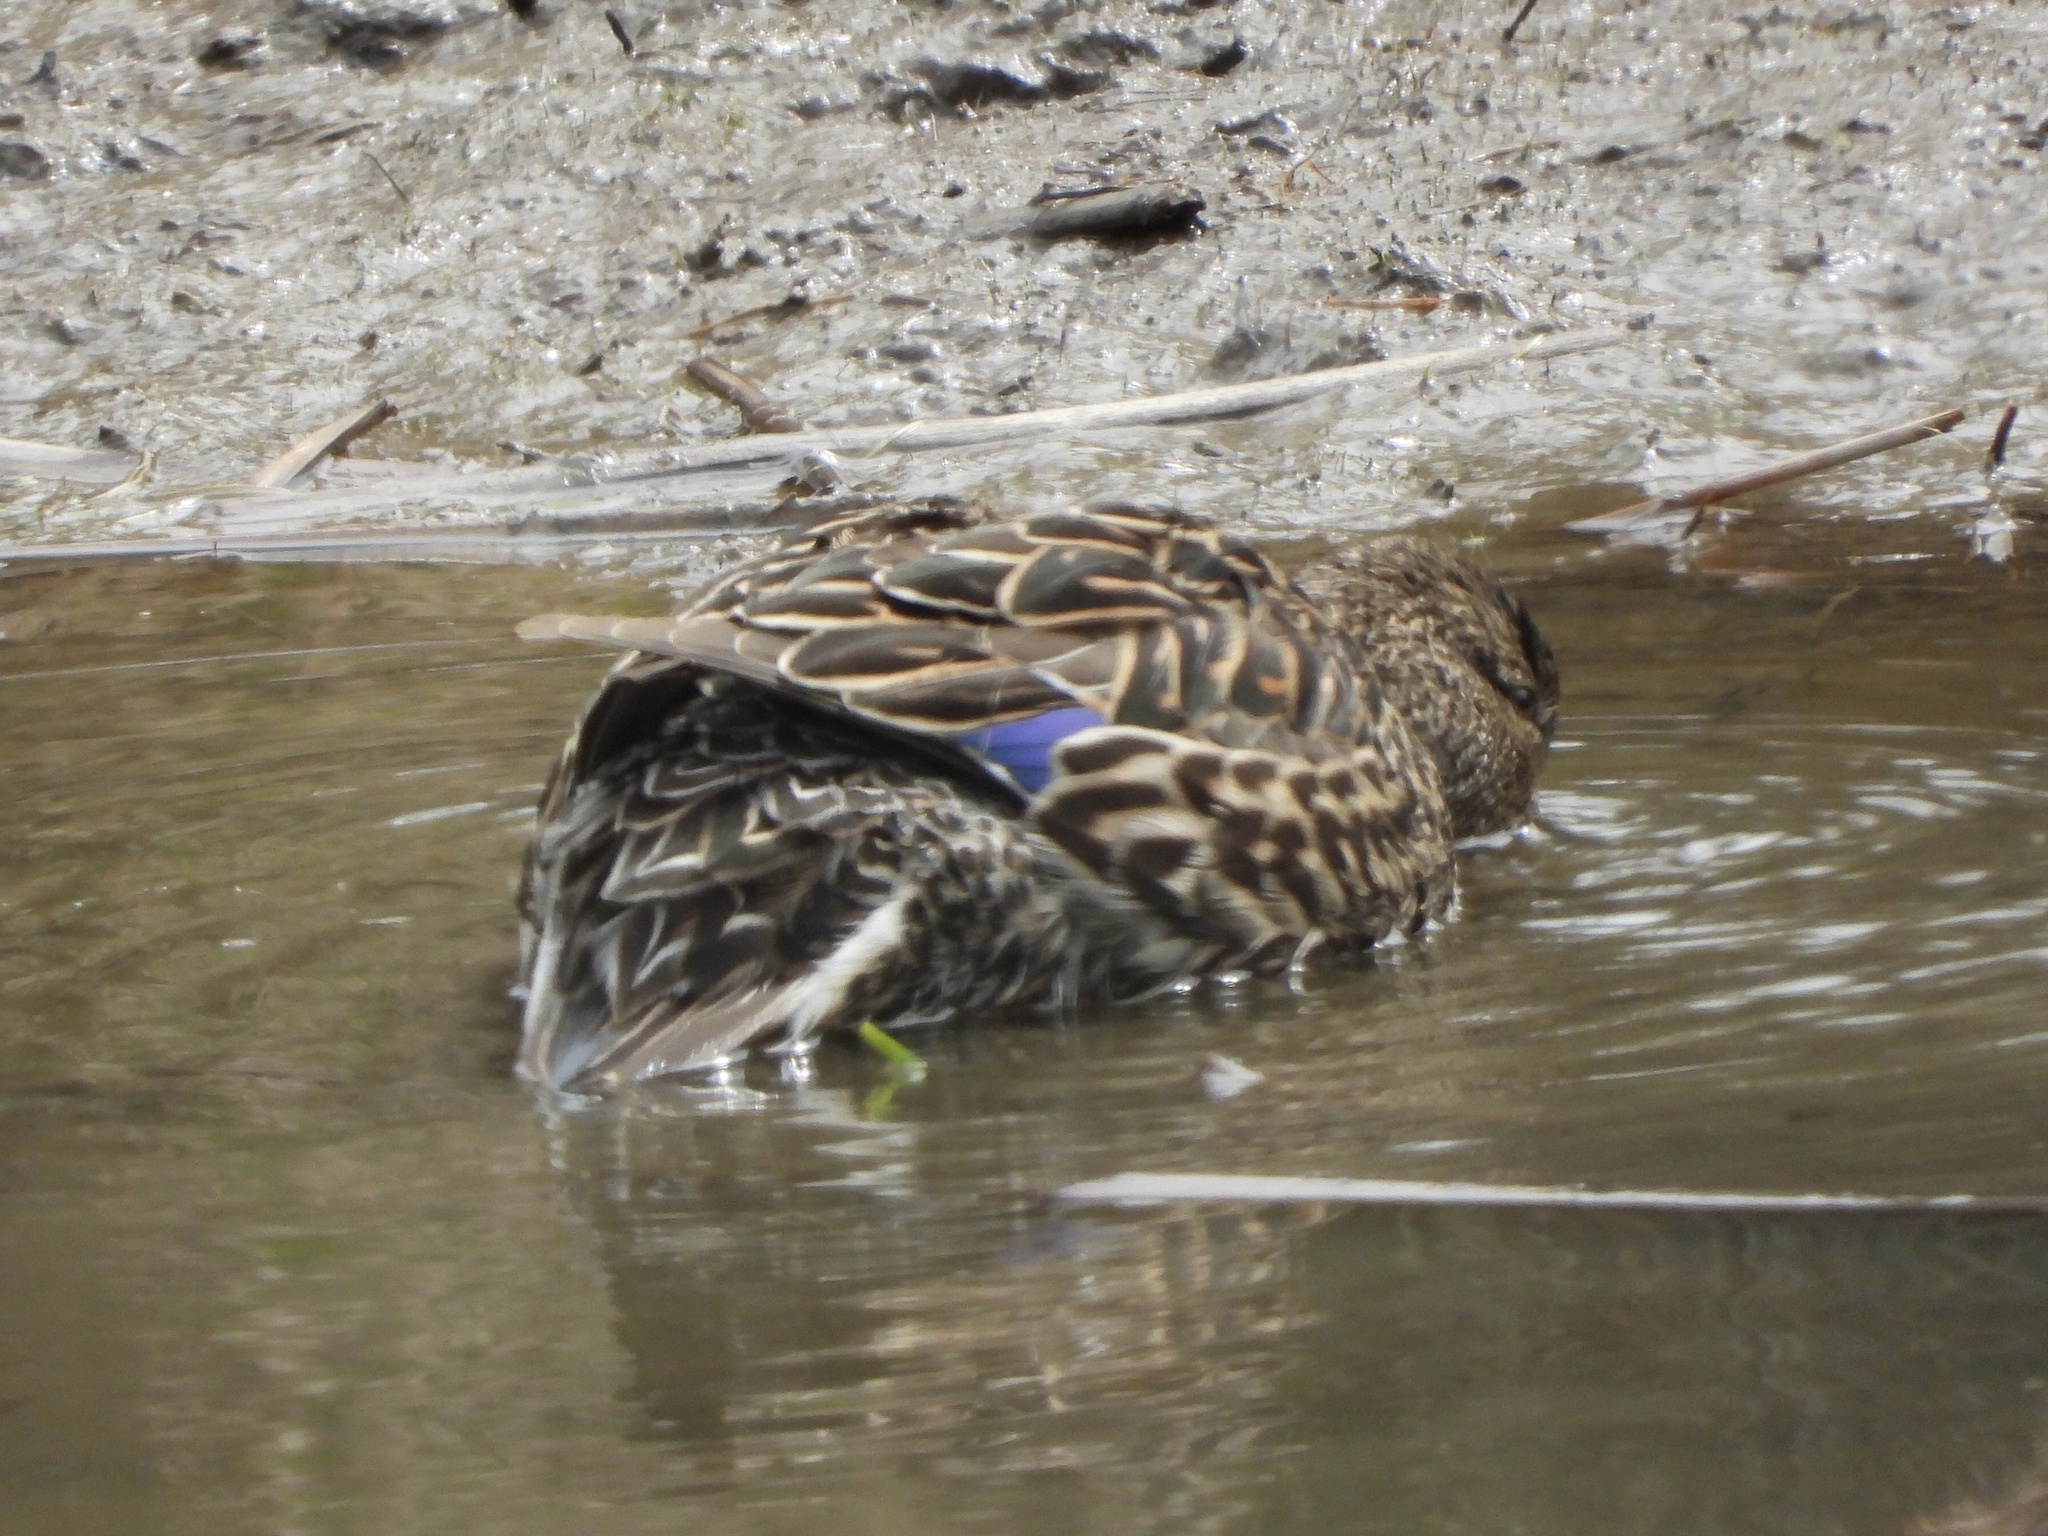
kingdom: Animalia
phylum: Chordata
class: Aves
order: Anseriformes
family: Anatidae
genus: Anas
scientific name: Anas crecca
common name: Eurasian teal
